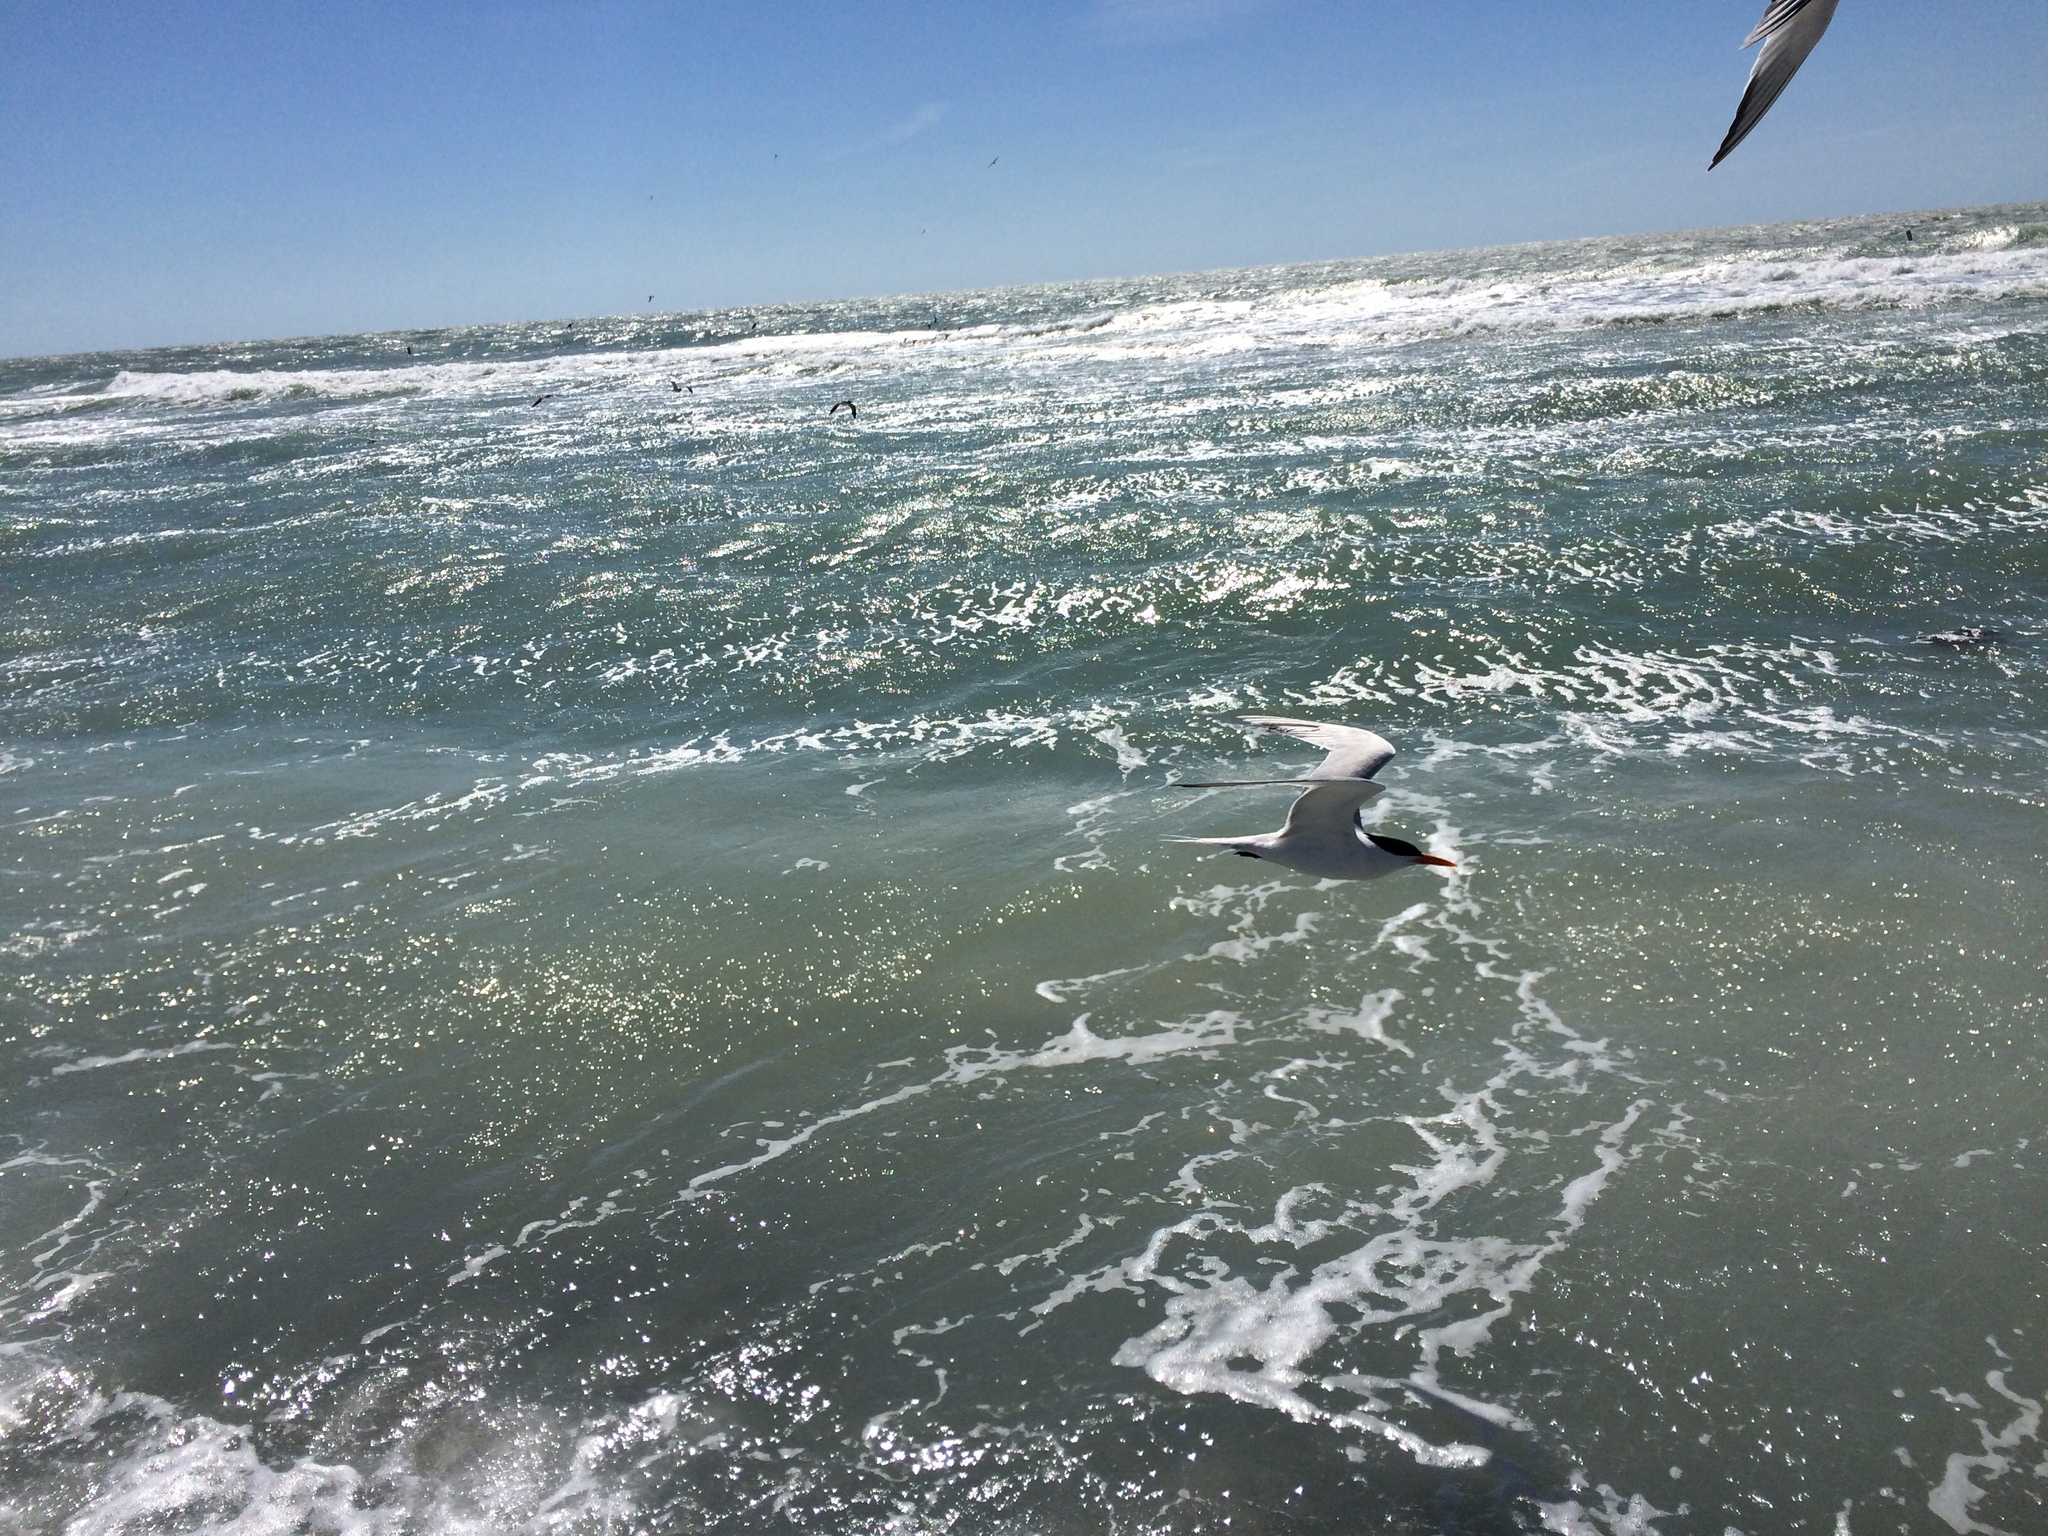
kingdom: Animalia
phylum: Chordata
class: Aves
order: Charadriiformes
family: Laridae
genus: Thalasseus
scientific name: Thalasseus maximus
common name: Royal tern
